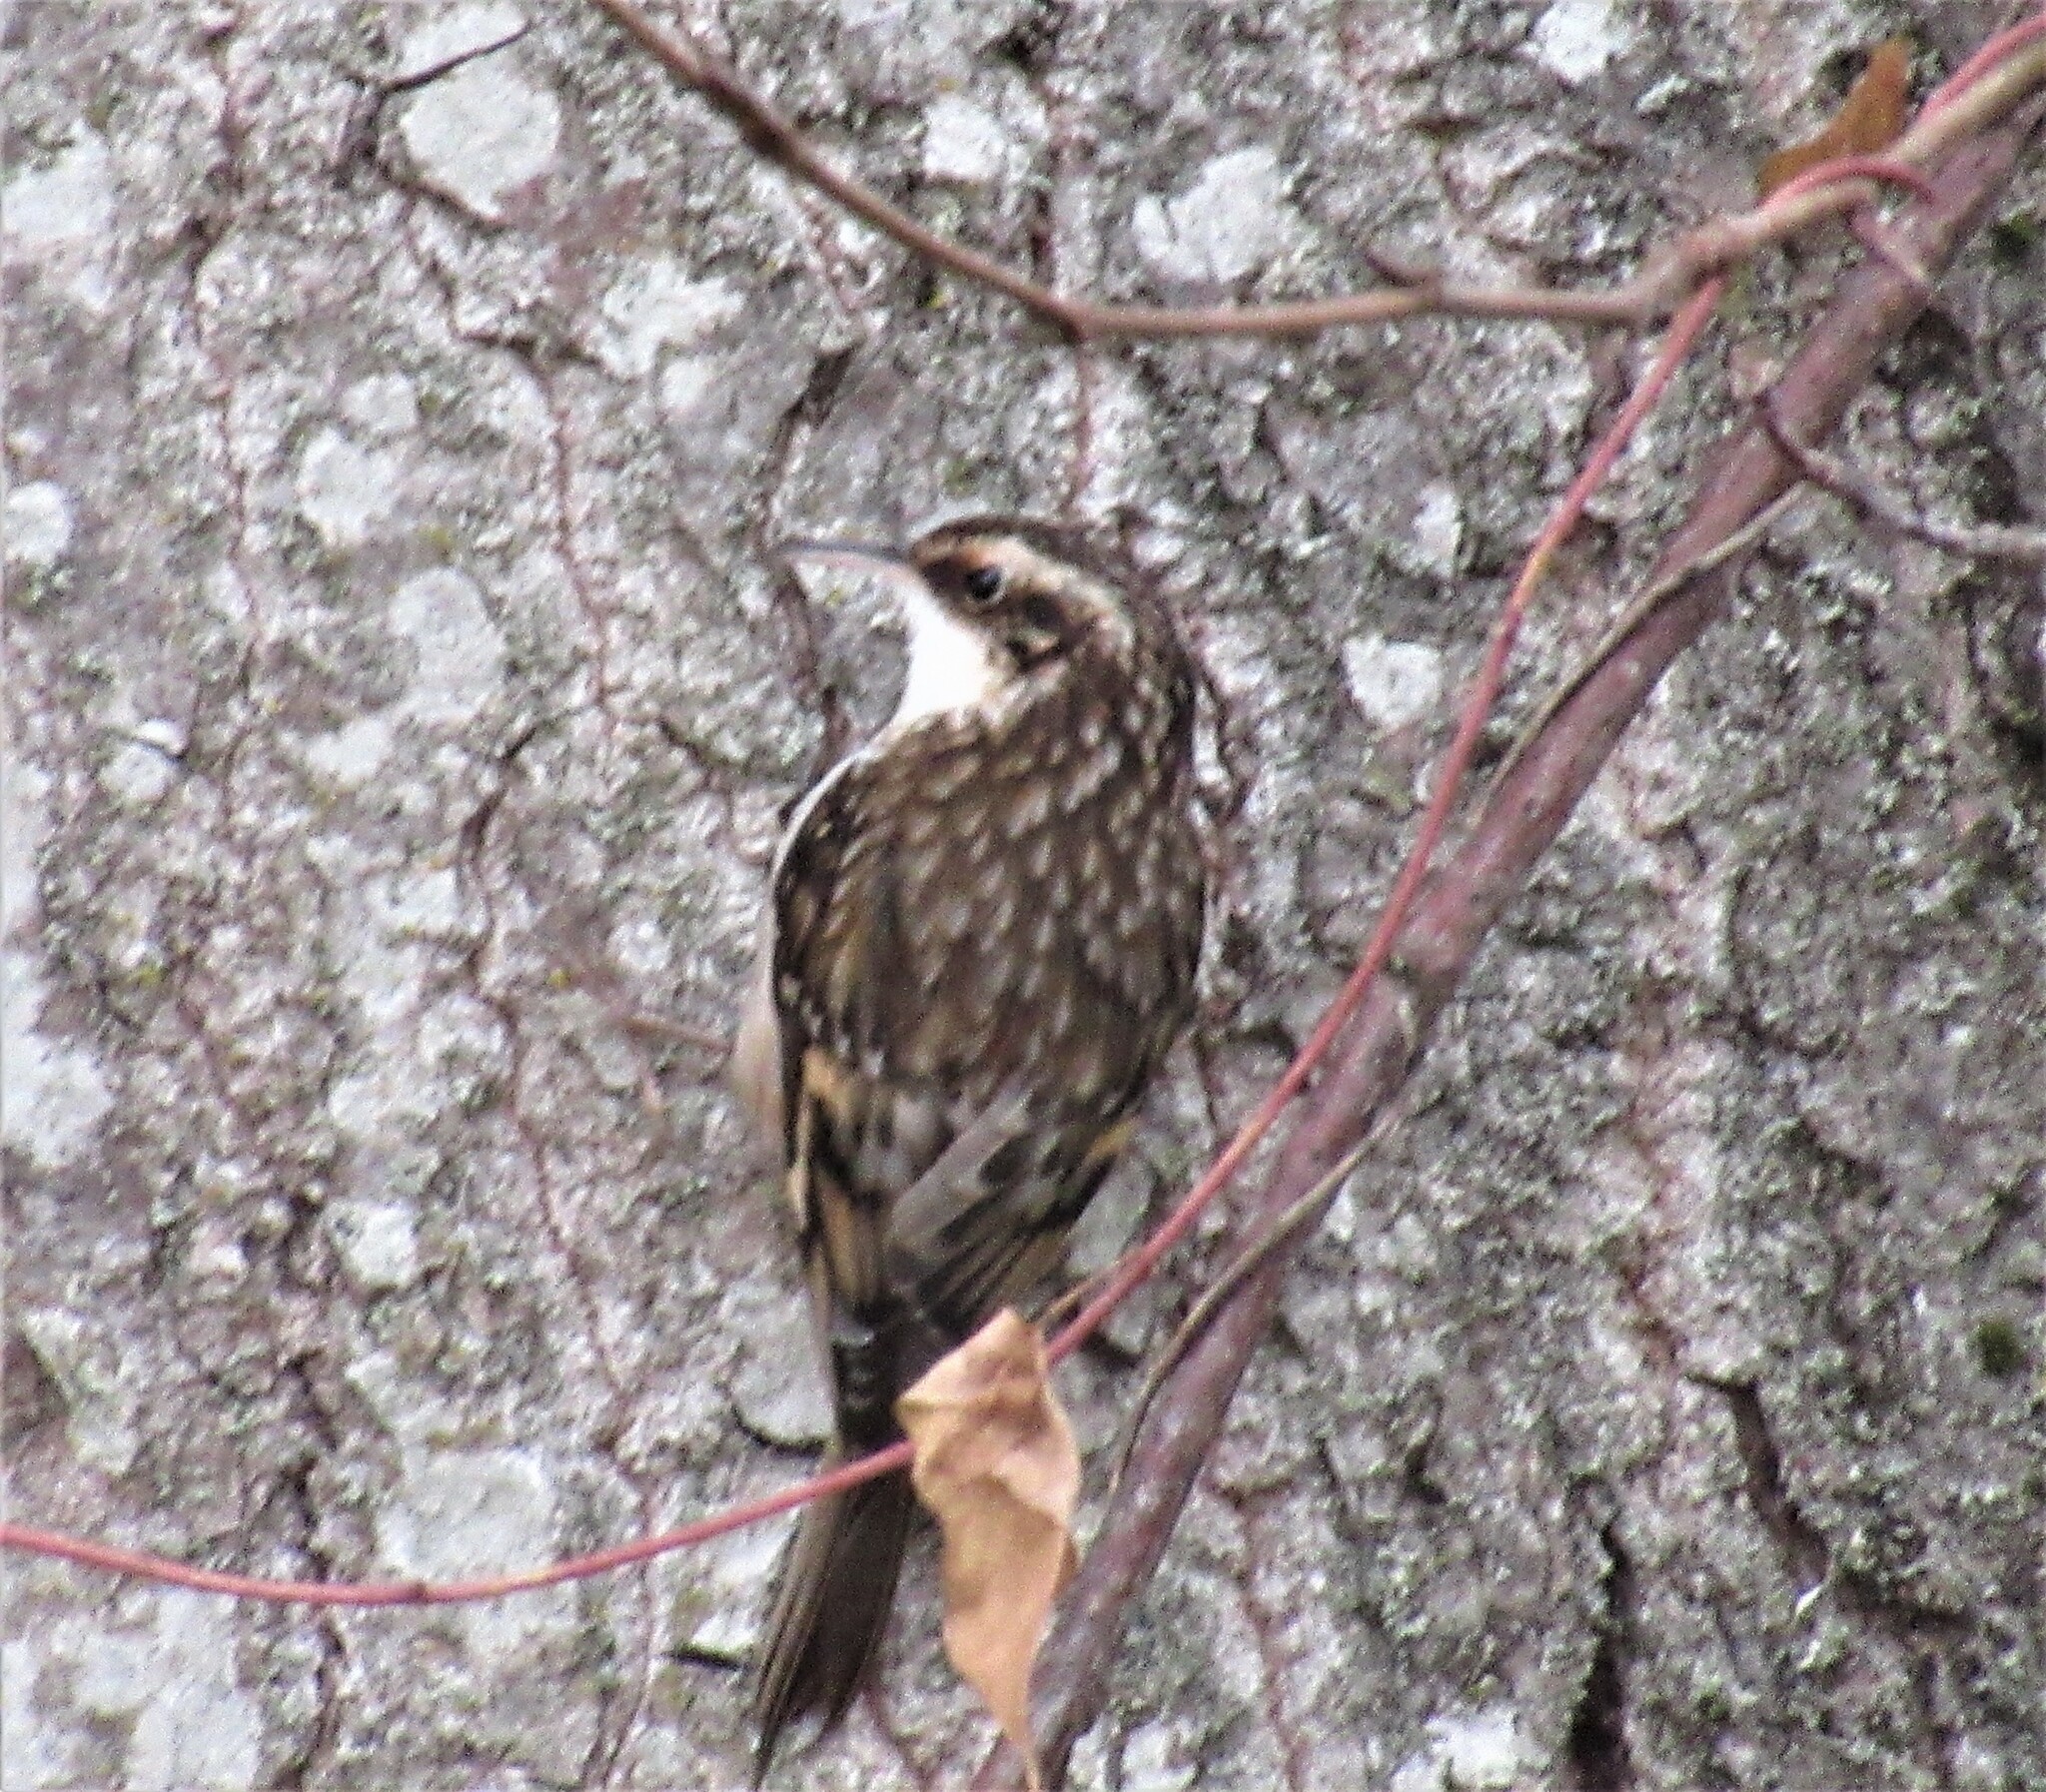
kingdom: Animalia
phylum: Chordata
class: Aves
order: Passeriformes
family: Certhiidae
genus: Certhia
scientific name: Certhia americana
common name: Brown creeper
